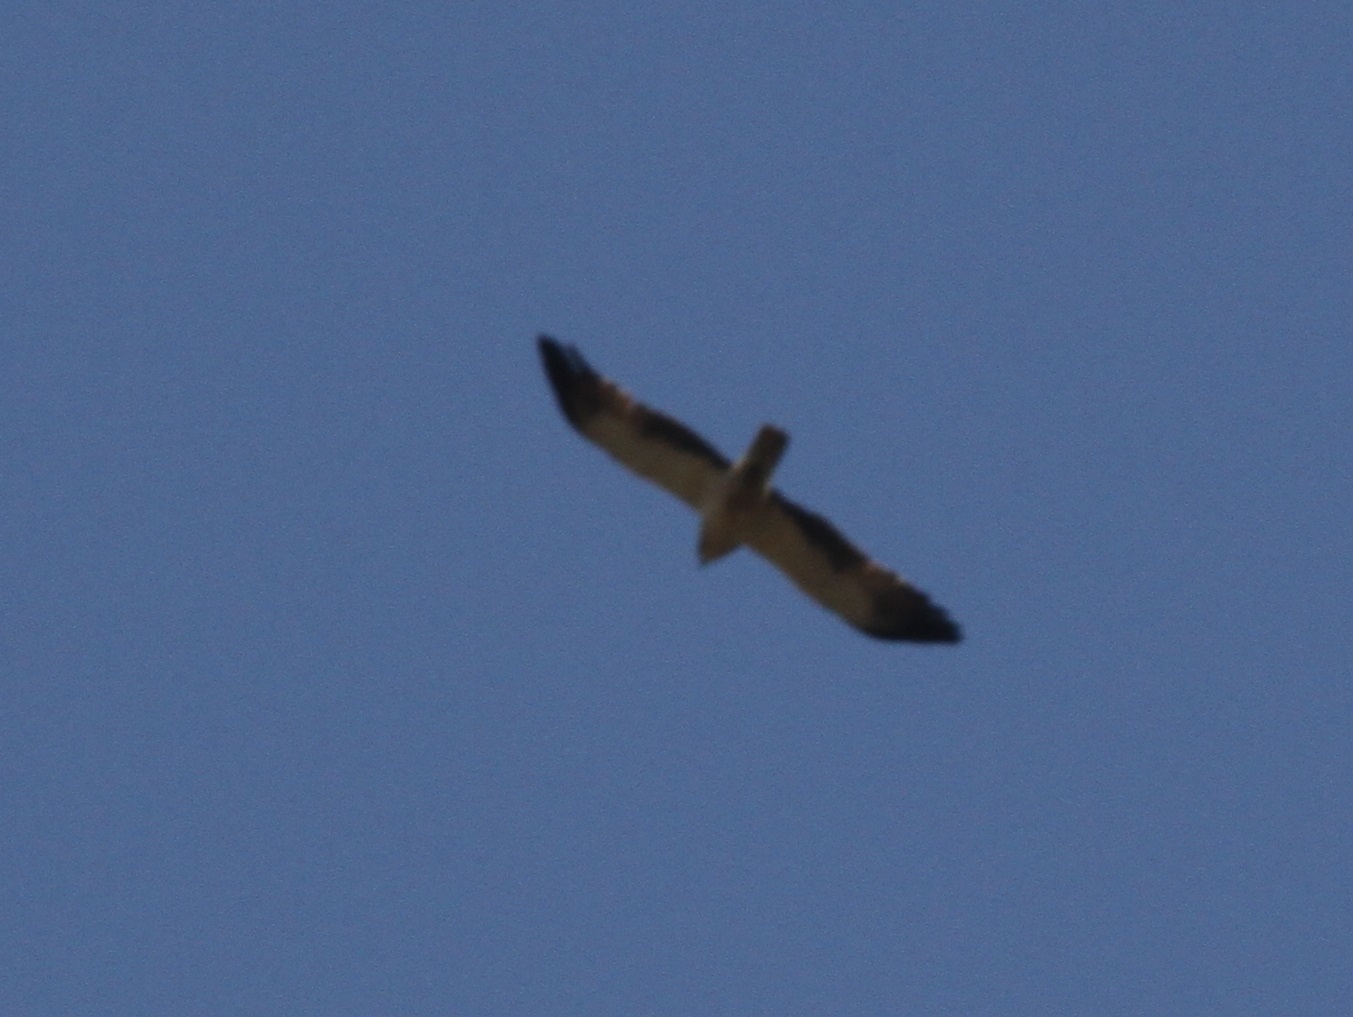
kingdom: Animalia
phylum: Chordata
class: Aves
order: Accipitriformes
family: Accipitridae
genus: Hieraaetus
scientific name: Hieraaetus pennatus
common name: Booted eagle
